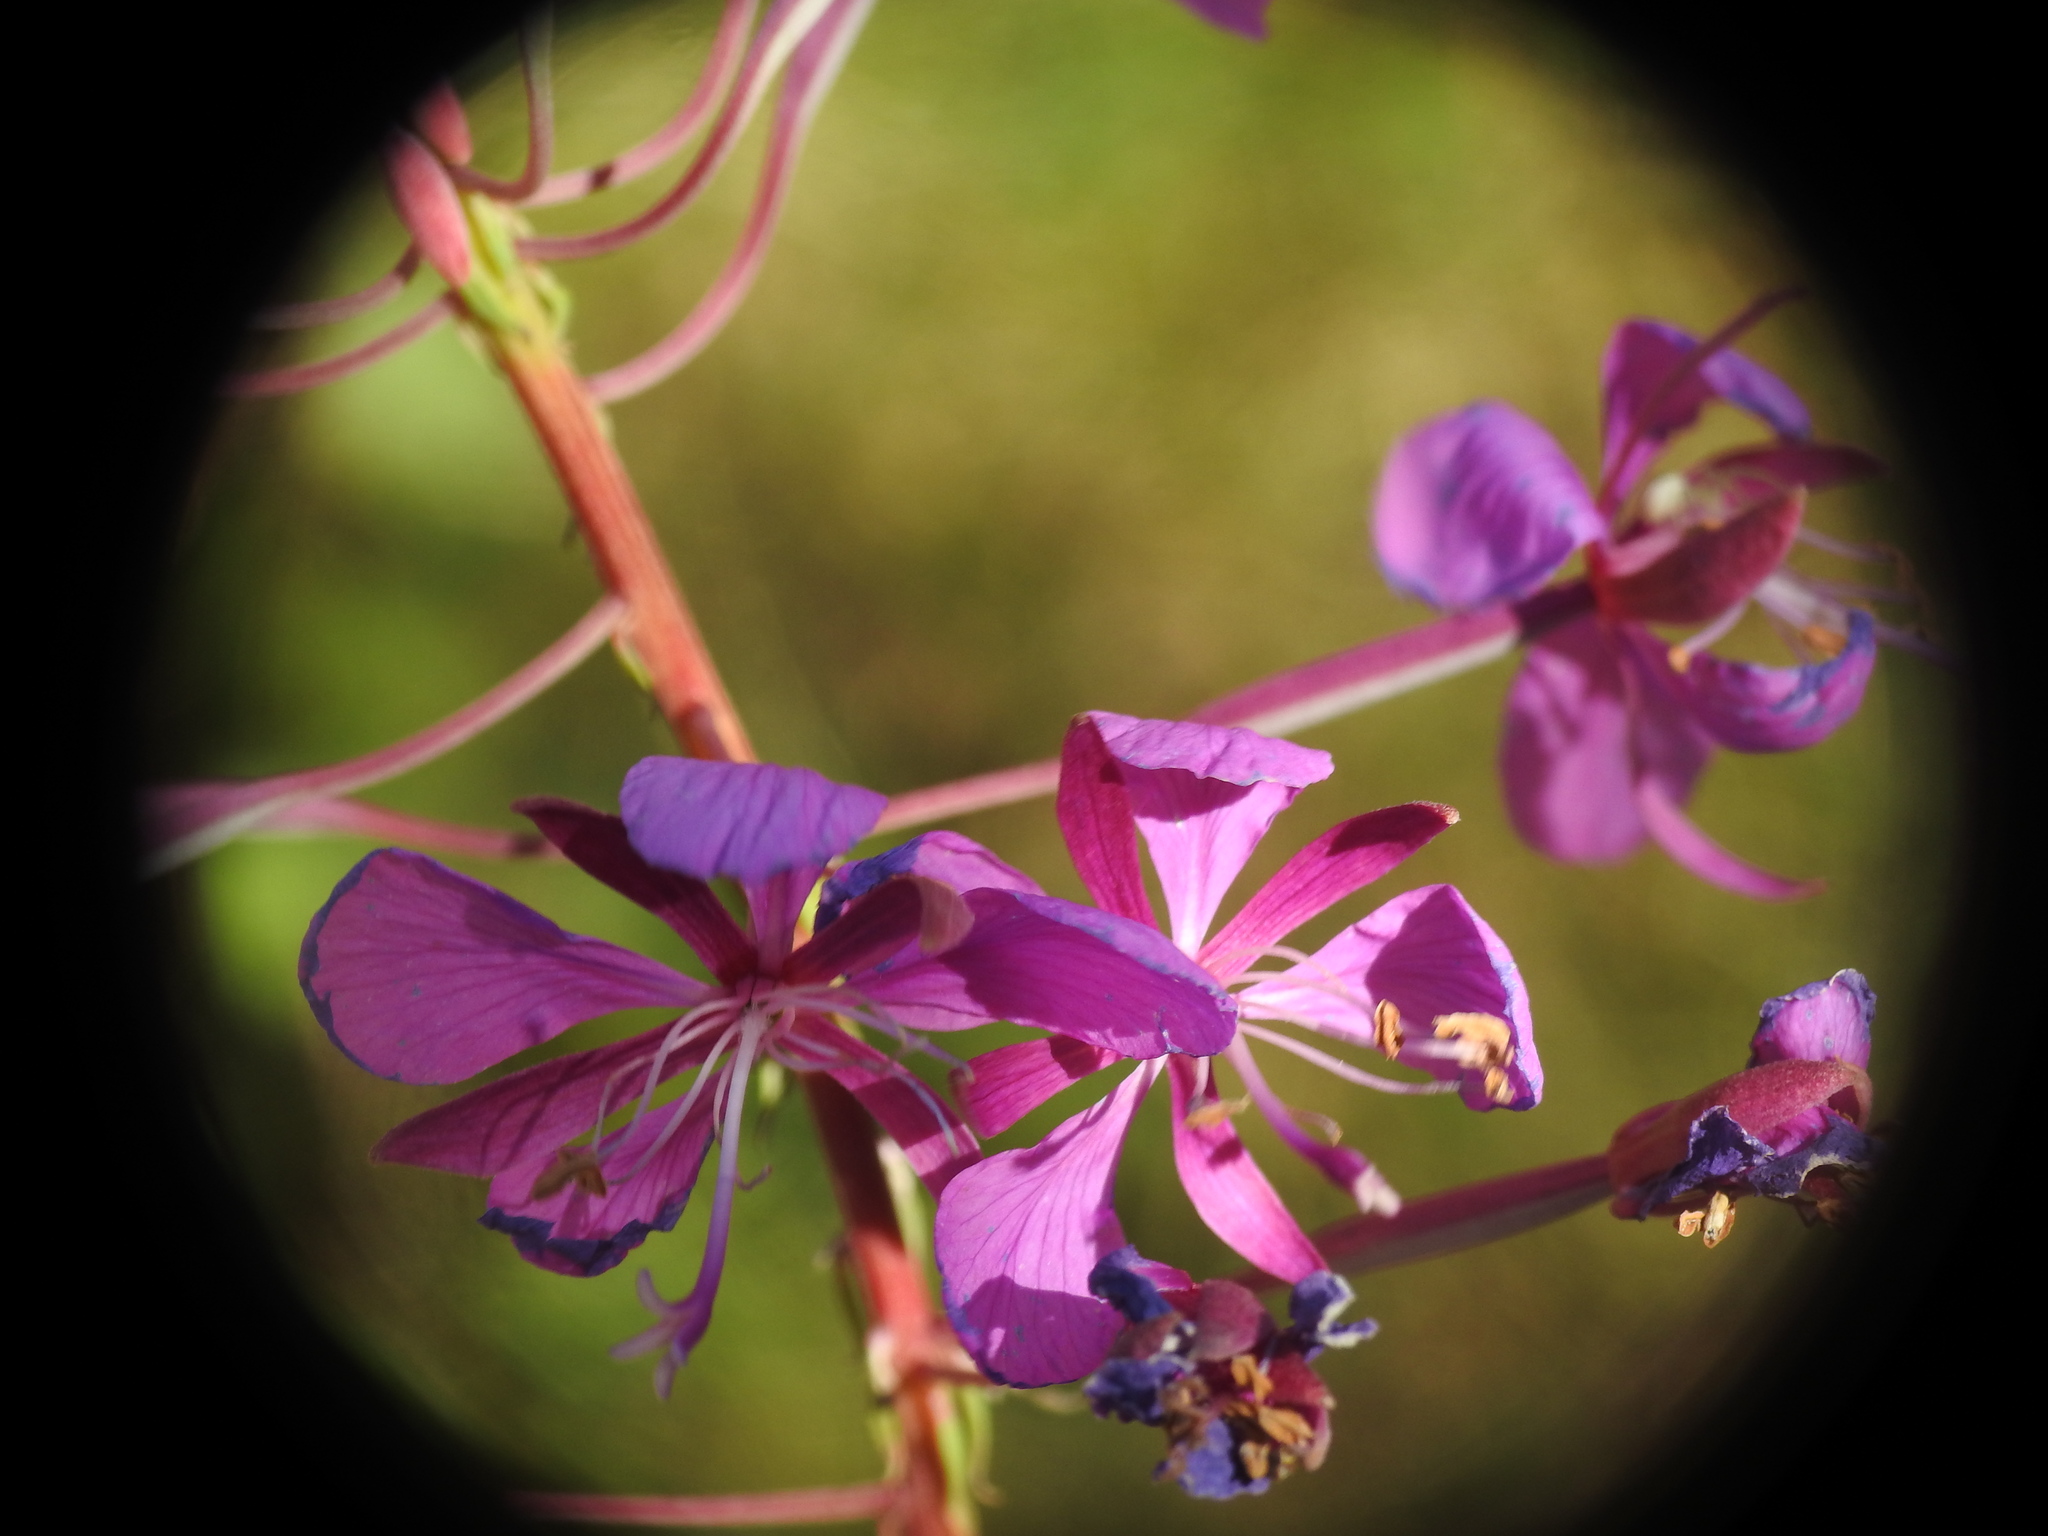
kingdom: Plantae
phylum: Tracheophyta
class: Magnoliopsida
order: Myrtales
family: Onagraceae
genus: Chamaenerion
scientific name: Chamaenerion angustifolium
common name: Fireweed
